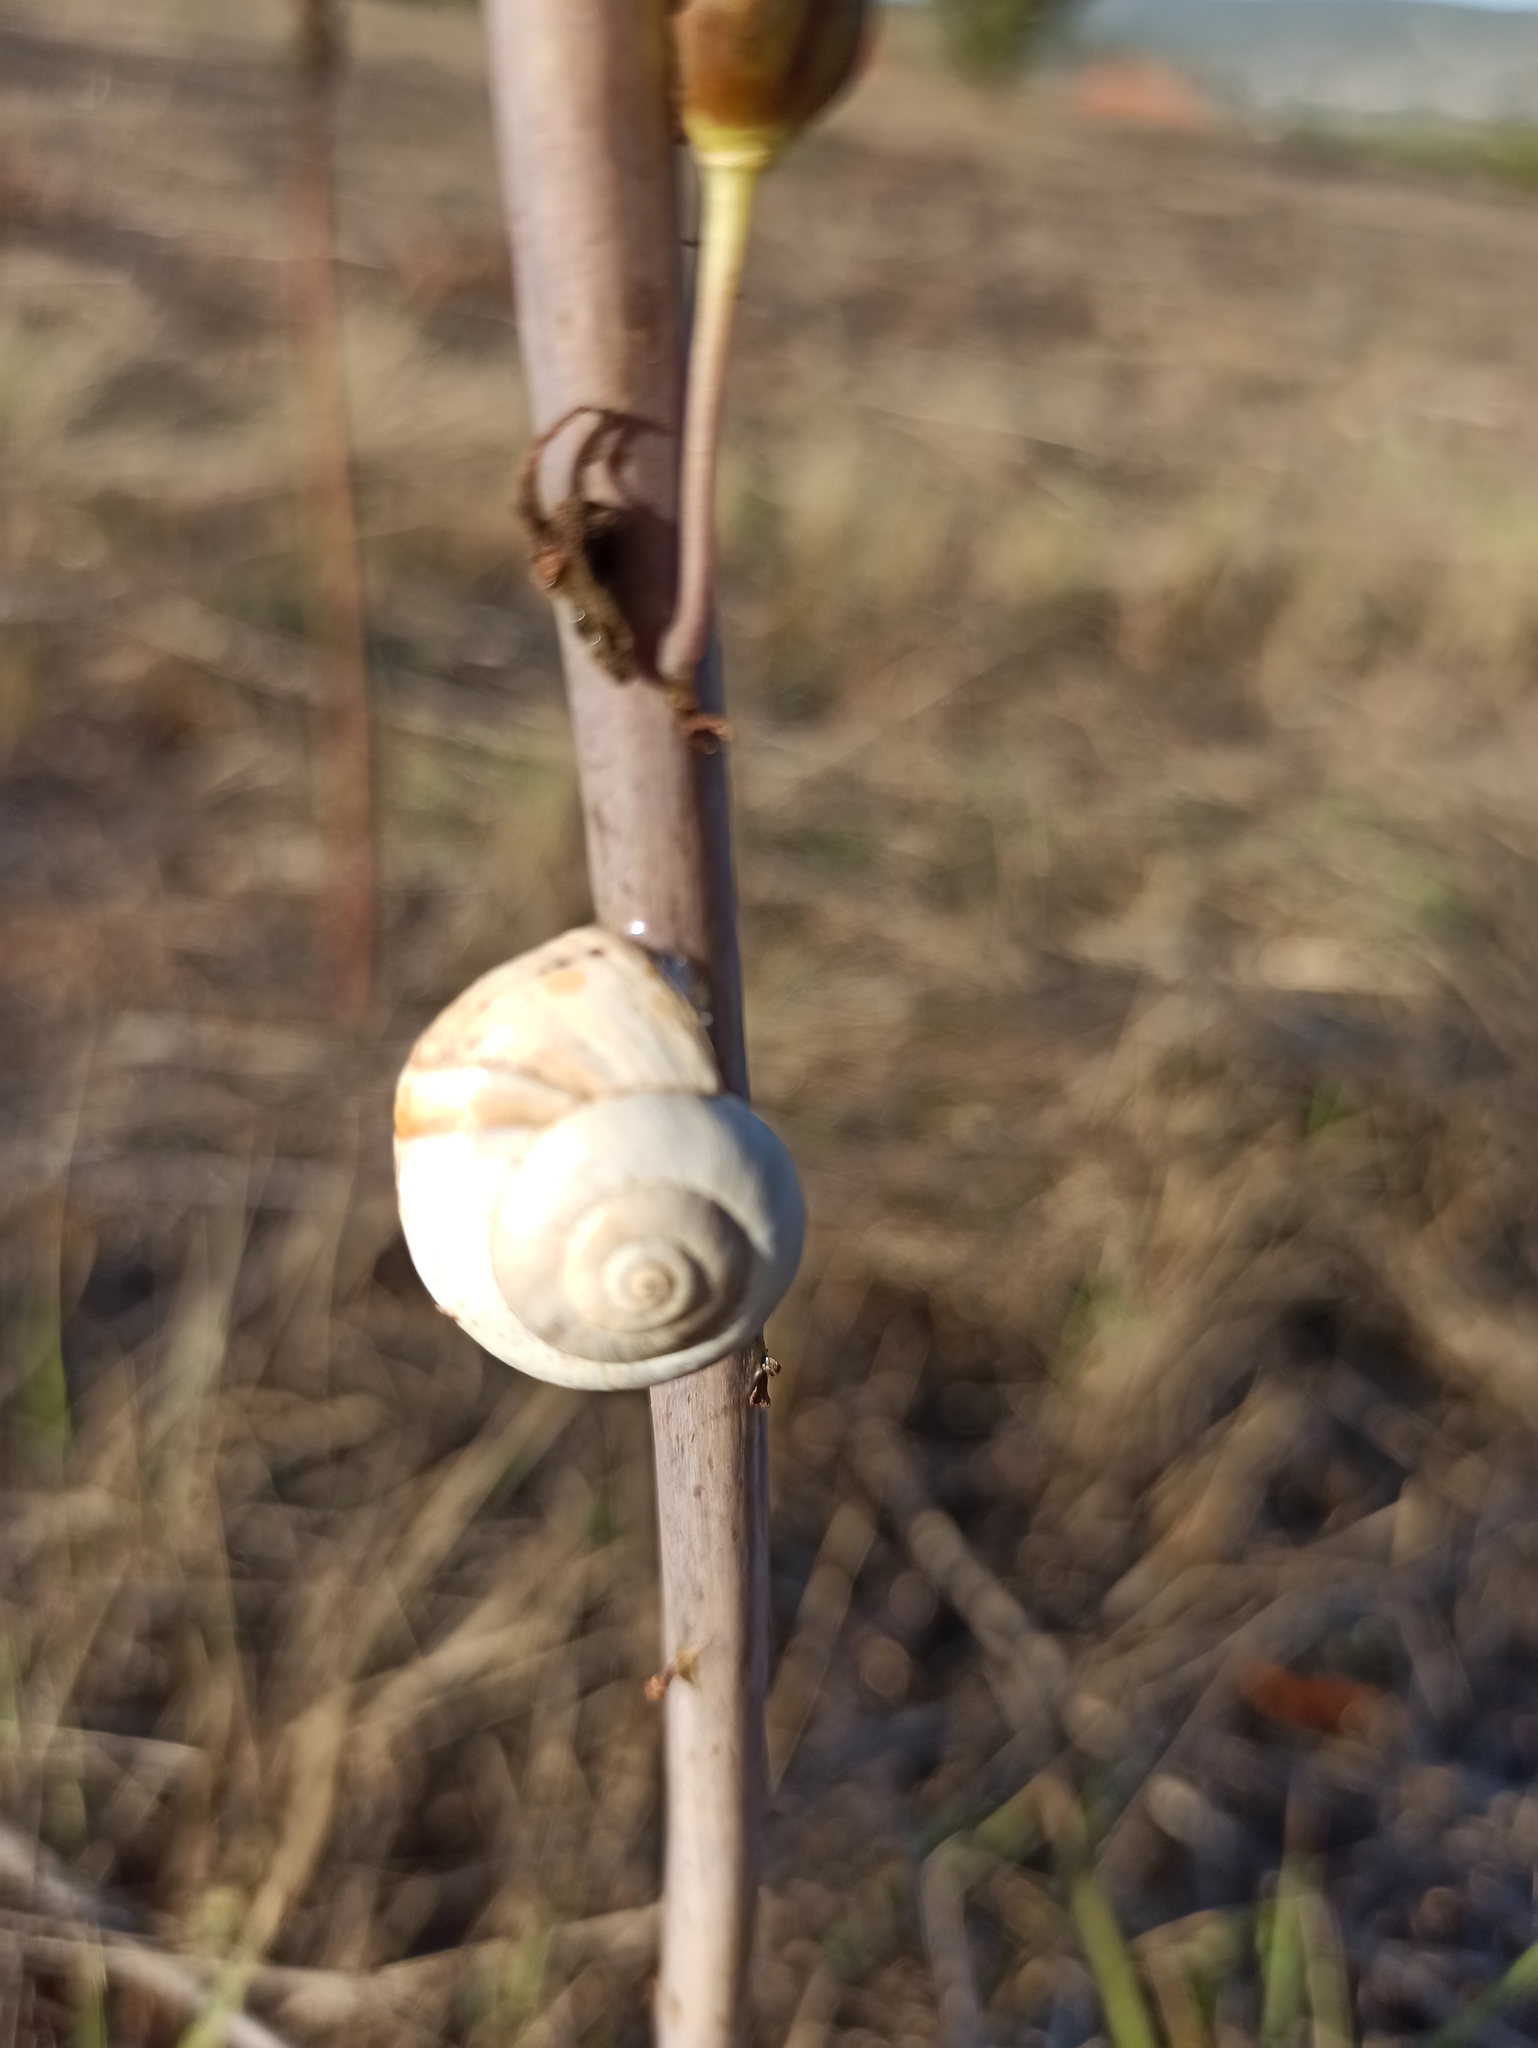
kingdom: Animalia
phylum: Mollusca
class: Gastropoda
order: Stylommatophora
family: Helicidae
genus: Theba
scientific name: Theba pisana
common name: White snail
